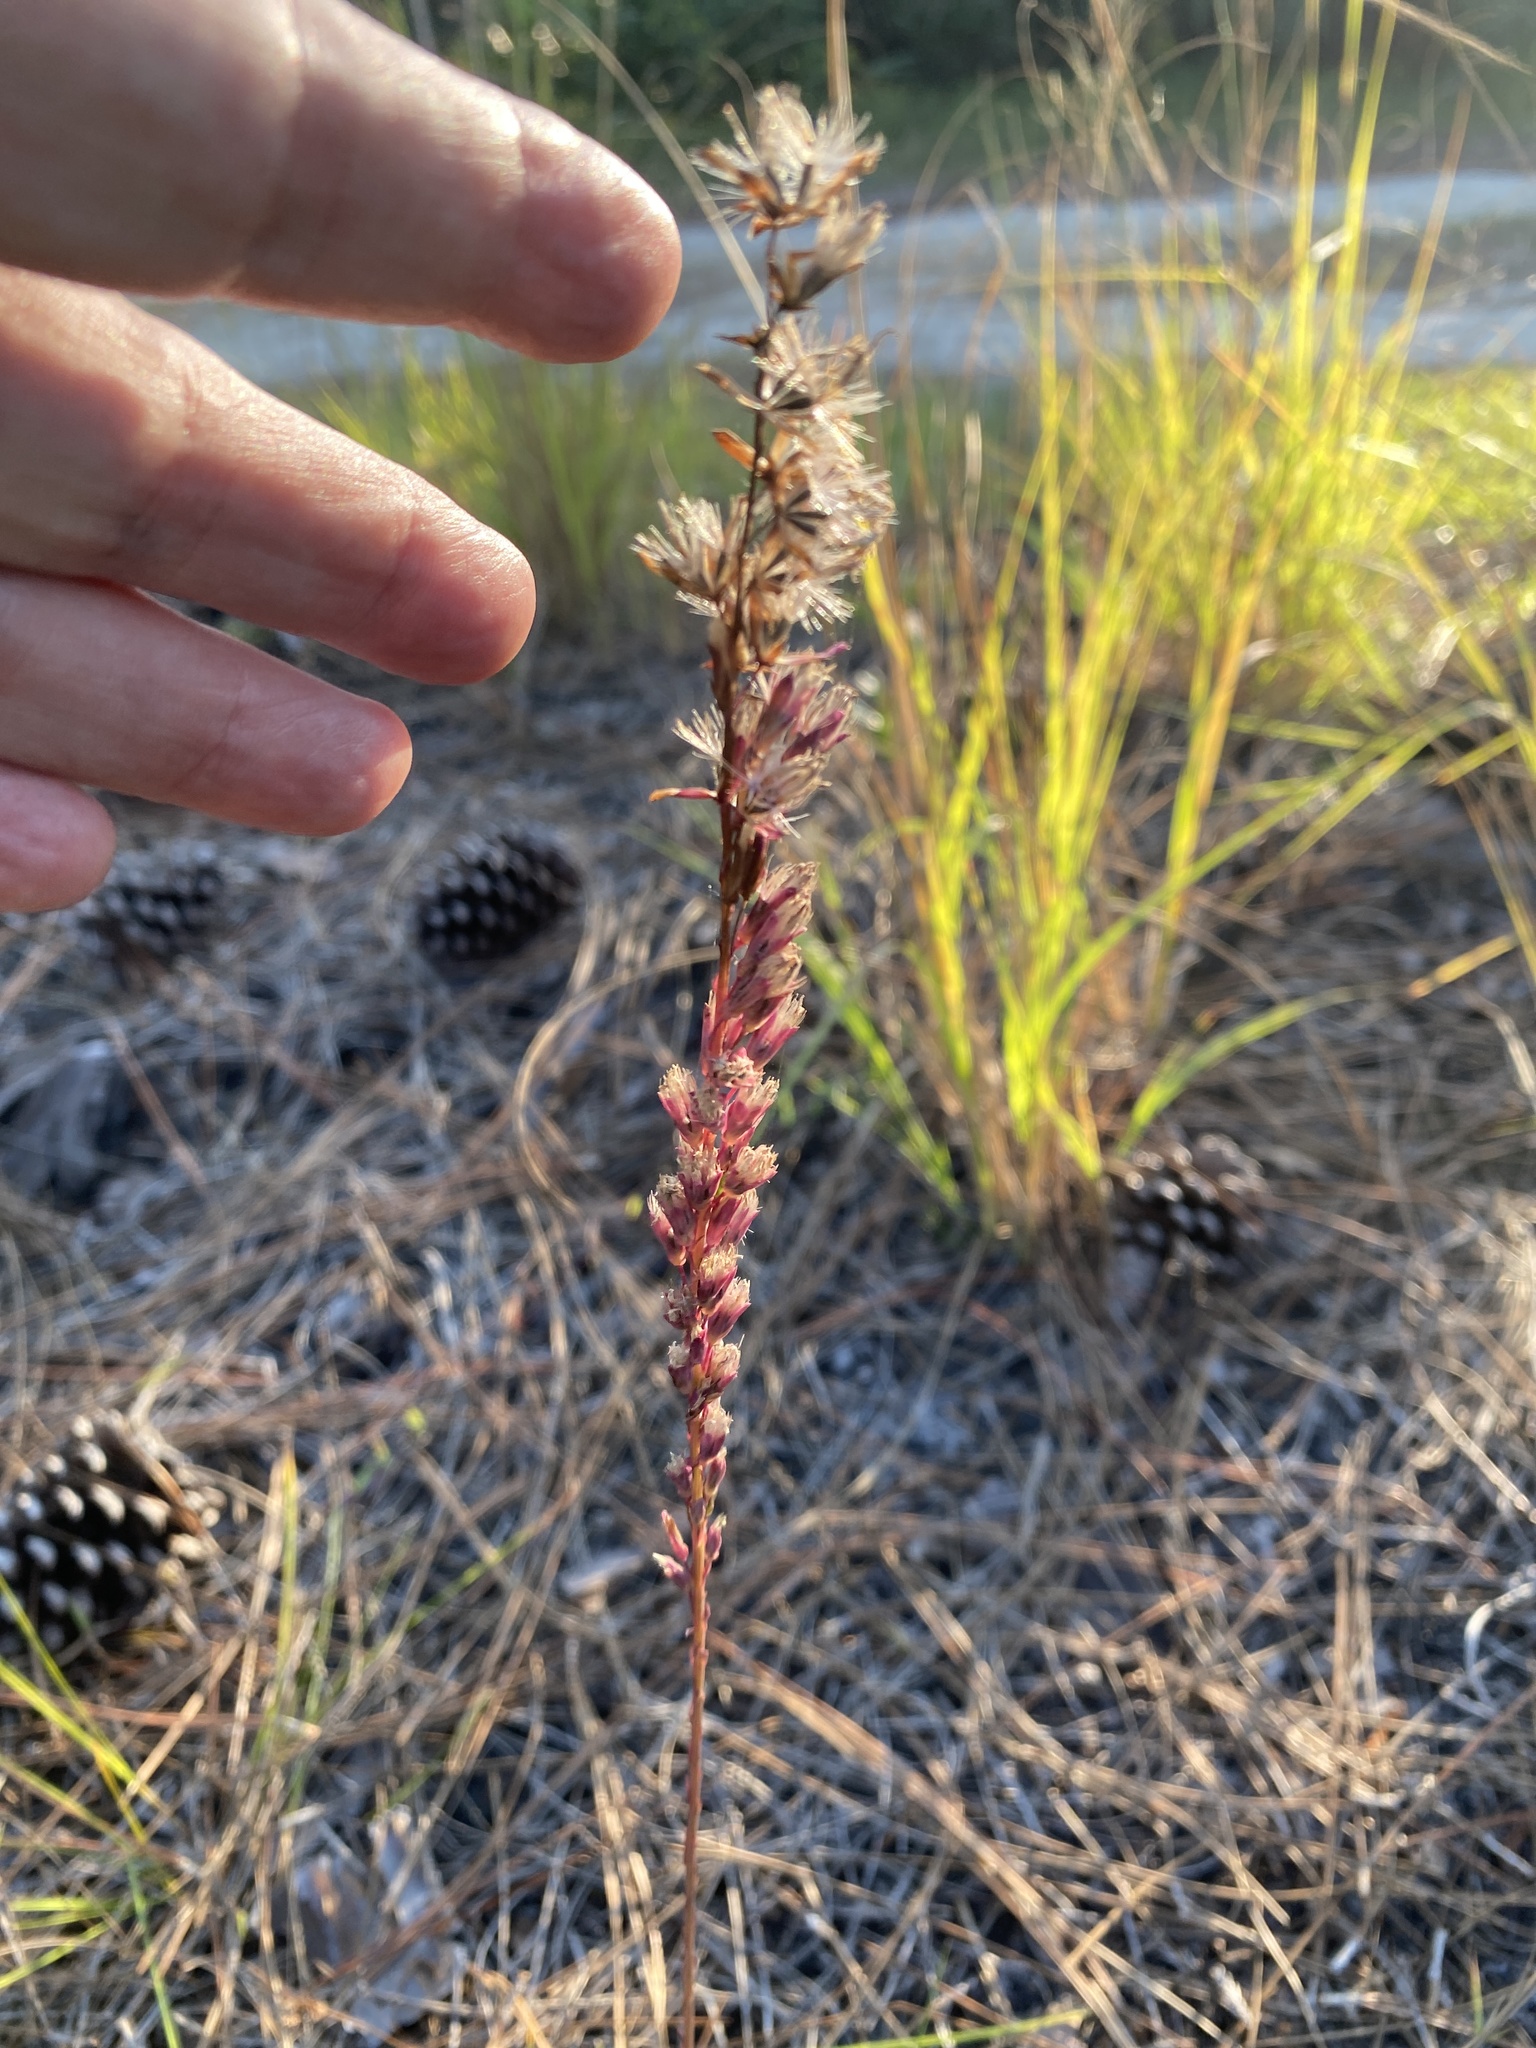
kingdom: Plantae
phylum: Tracheophyta
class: Magnoliopsida
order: Asterales
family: Asteraceae
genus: Liatris
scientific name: Liatris tenuifolia
